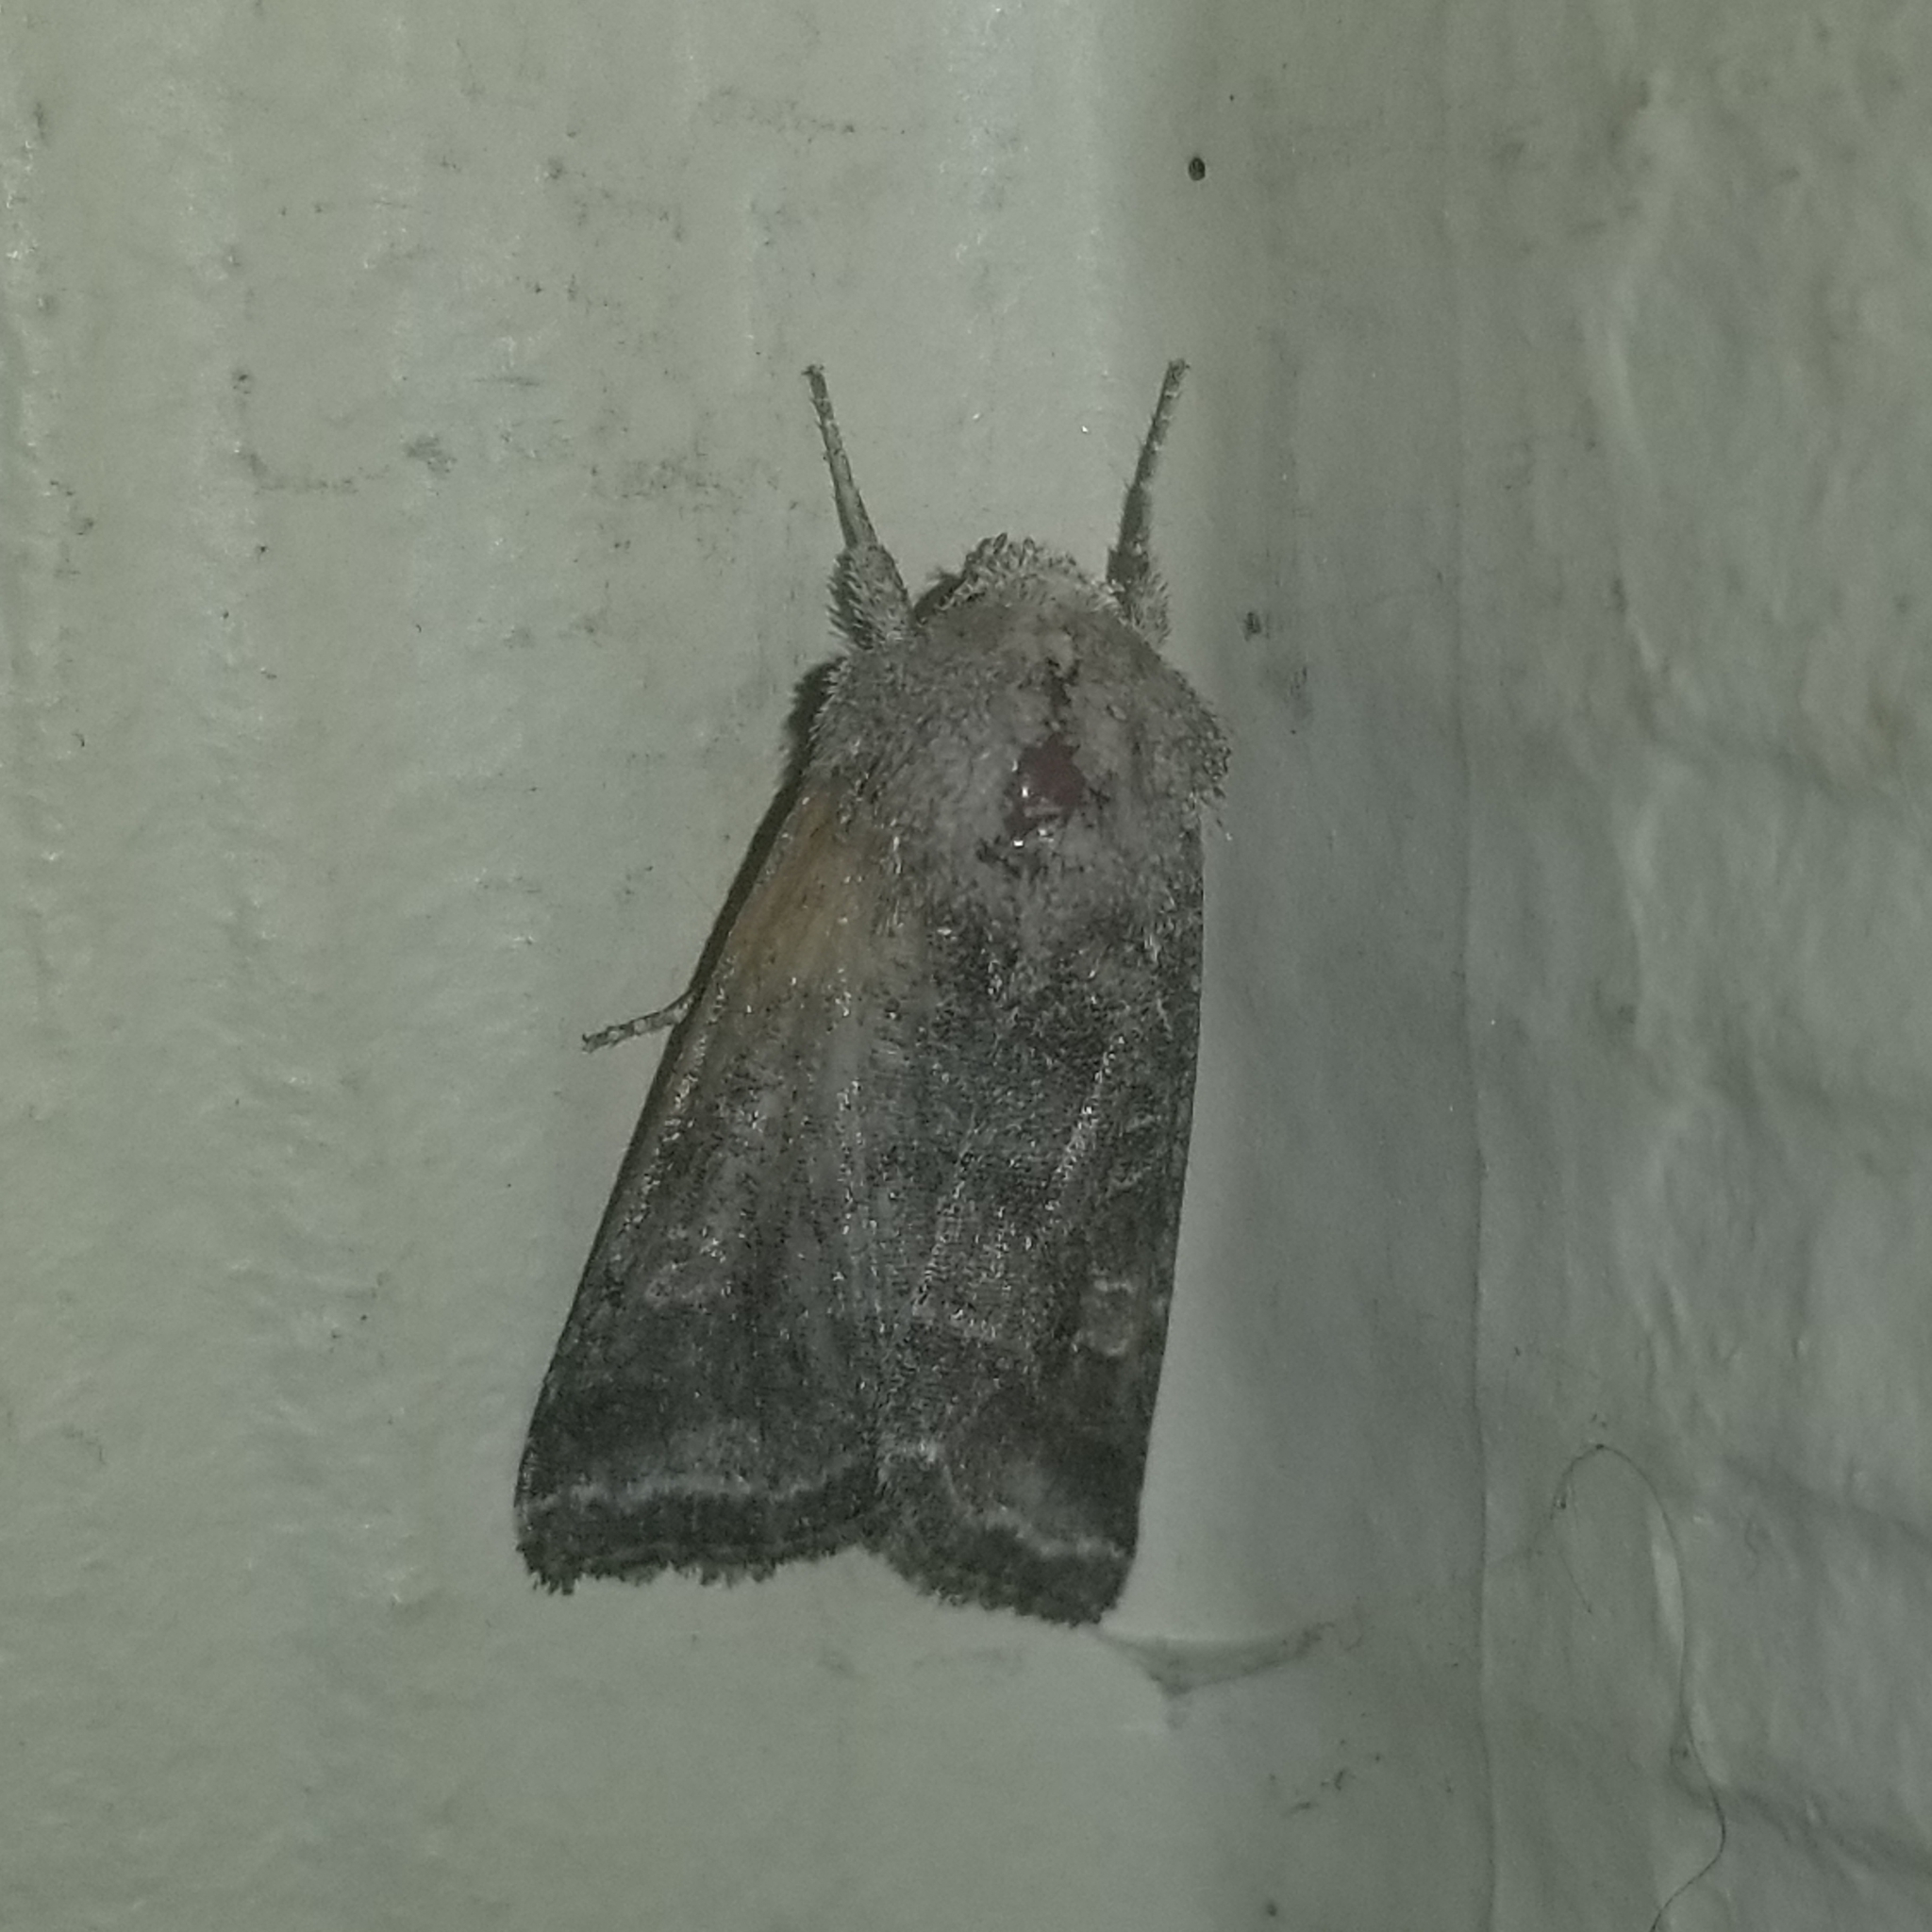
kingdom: Animalia
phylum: Arthropoda
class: Insecta
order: Lepidoptera
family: Noctuidae
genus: Lacinipolia
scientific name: Lacinipolia erecta
